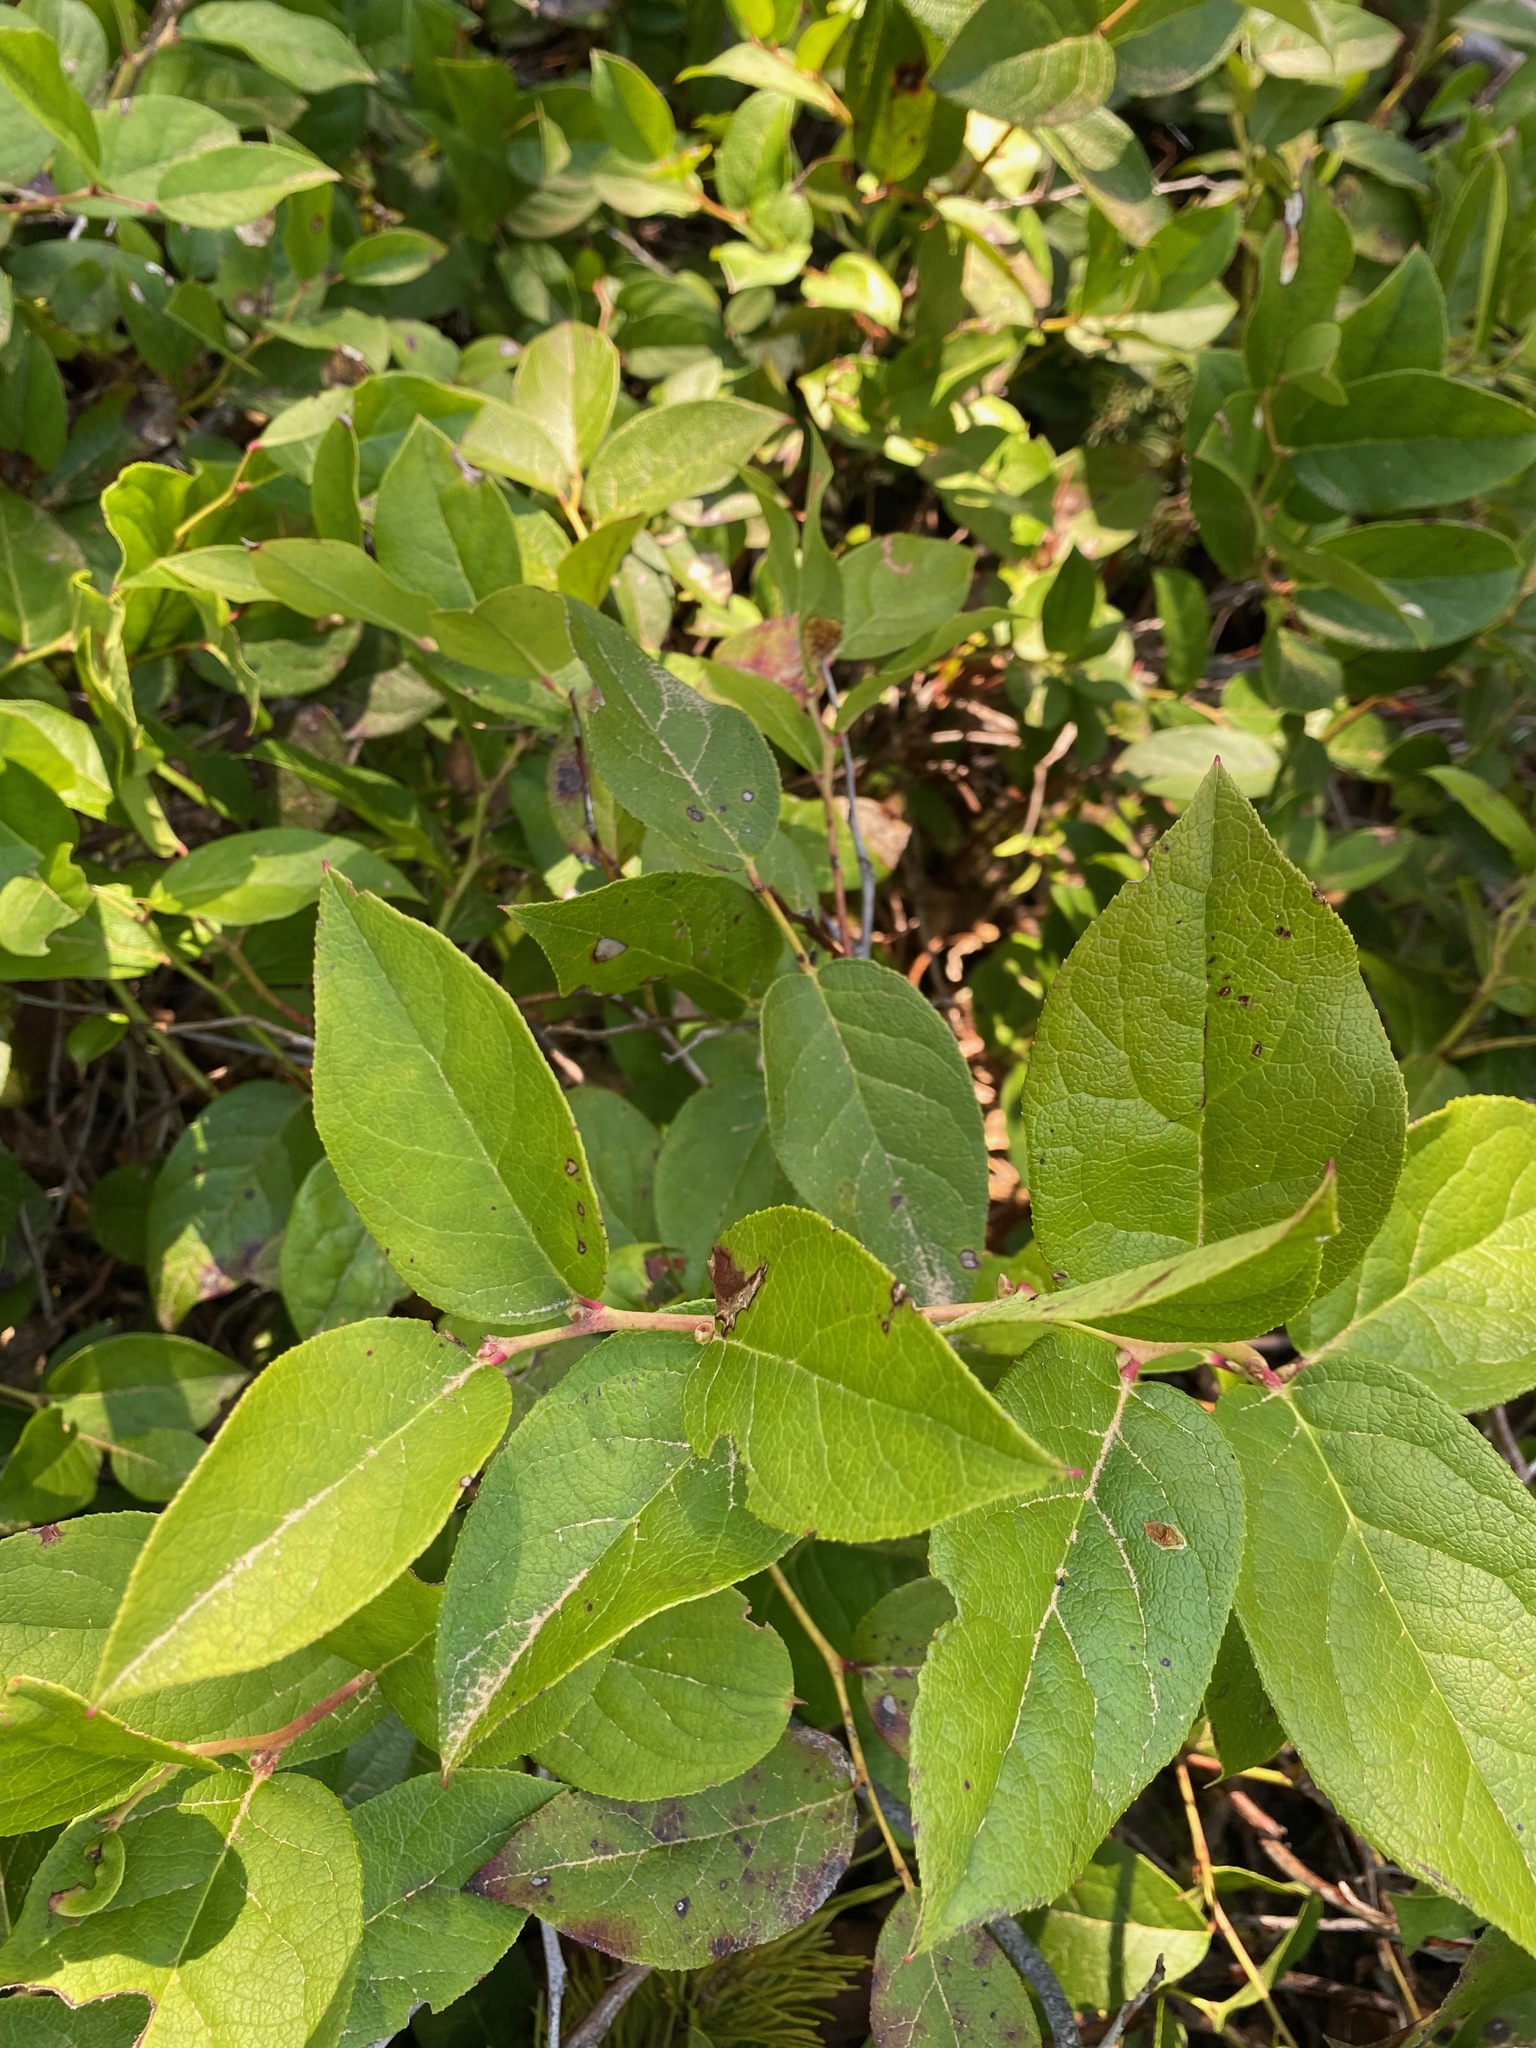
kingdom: Plantae
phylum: Tracheophyta
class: Magnoliopsida
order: Ericales
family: Ericaceae
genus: Gaultheria
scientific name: Gaultheria shallon
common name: Shallon
